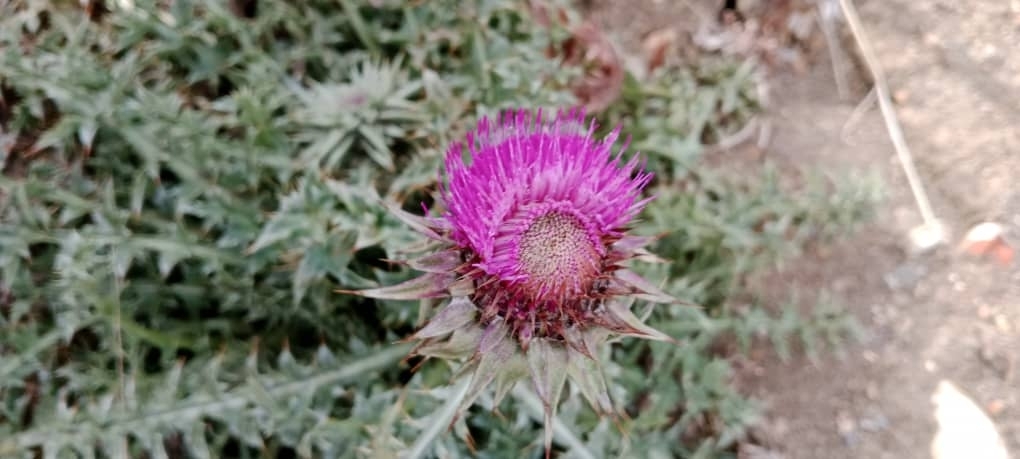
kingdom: Plantae
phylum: Tracheophyta
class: Magnoliopsida
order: Asterales
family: Asteraceae
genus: Carduus
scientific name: Carduus macrocephalus
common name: Giant thistle
